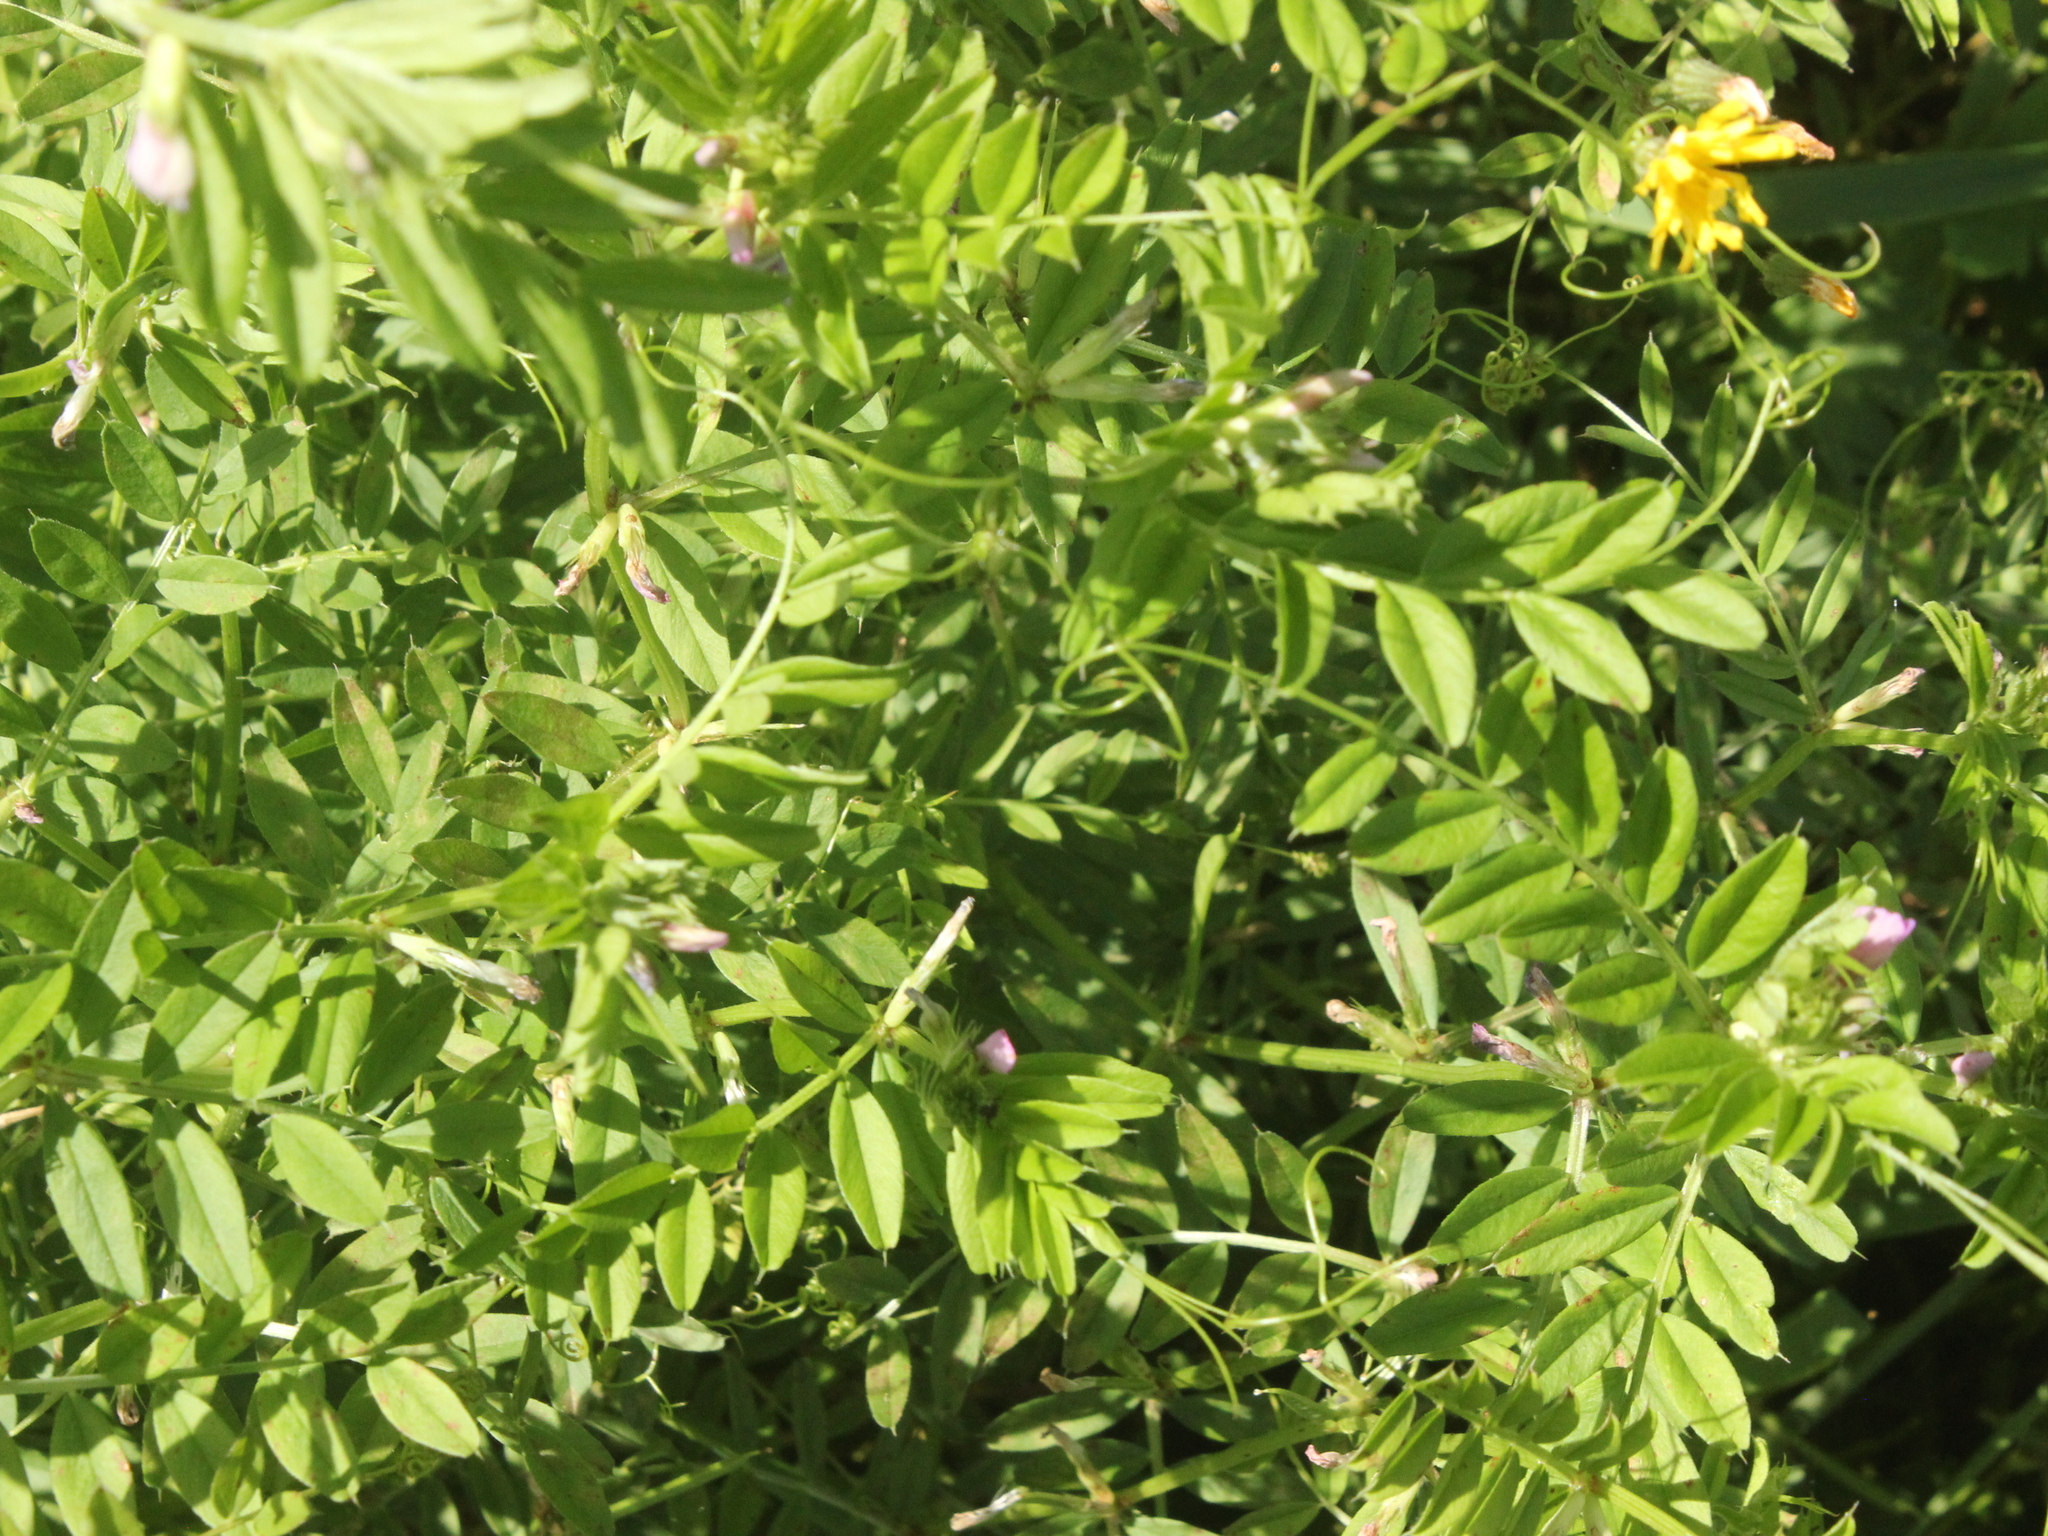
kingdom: Plantae
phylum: Tracheophyta
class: Magnoliopsida
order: Fabales
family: Fabaceae
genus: Vicia
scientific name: Vicia sativa
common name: Garden vetch
